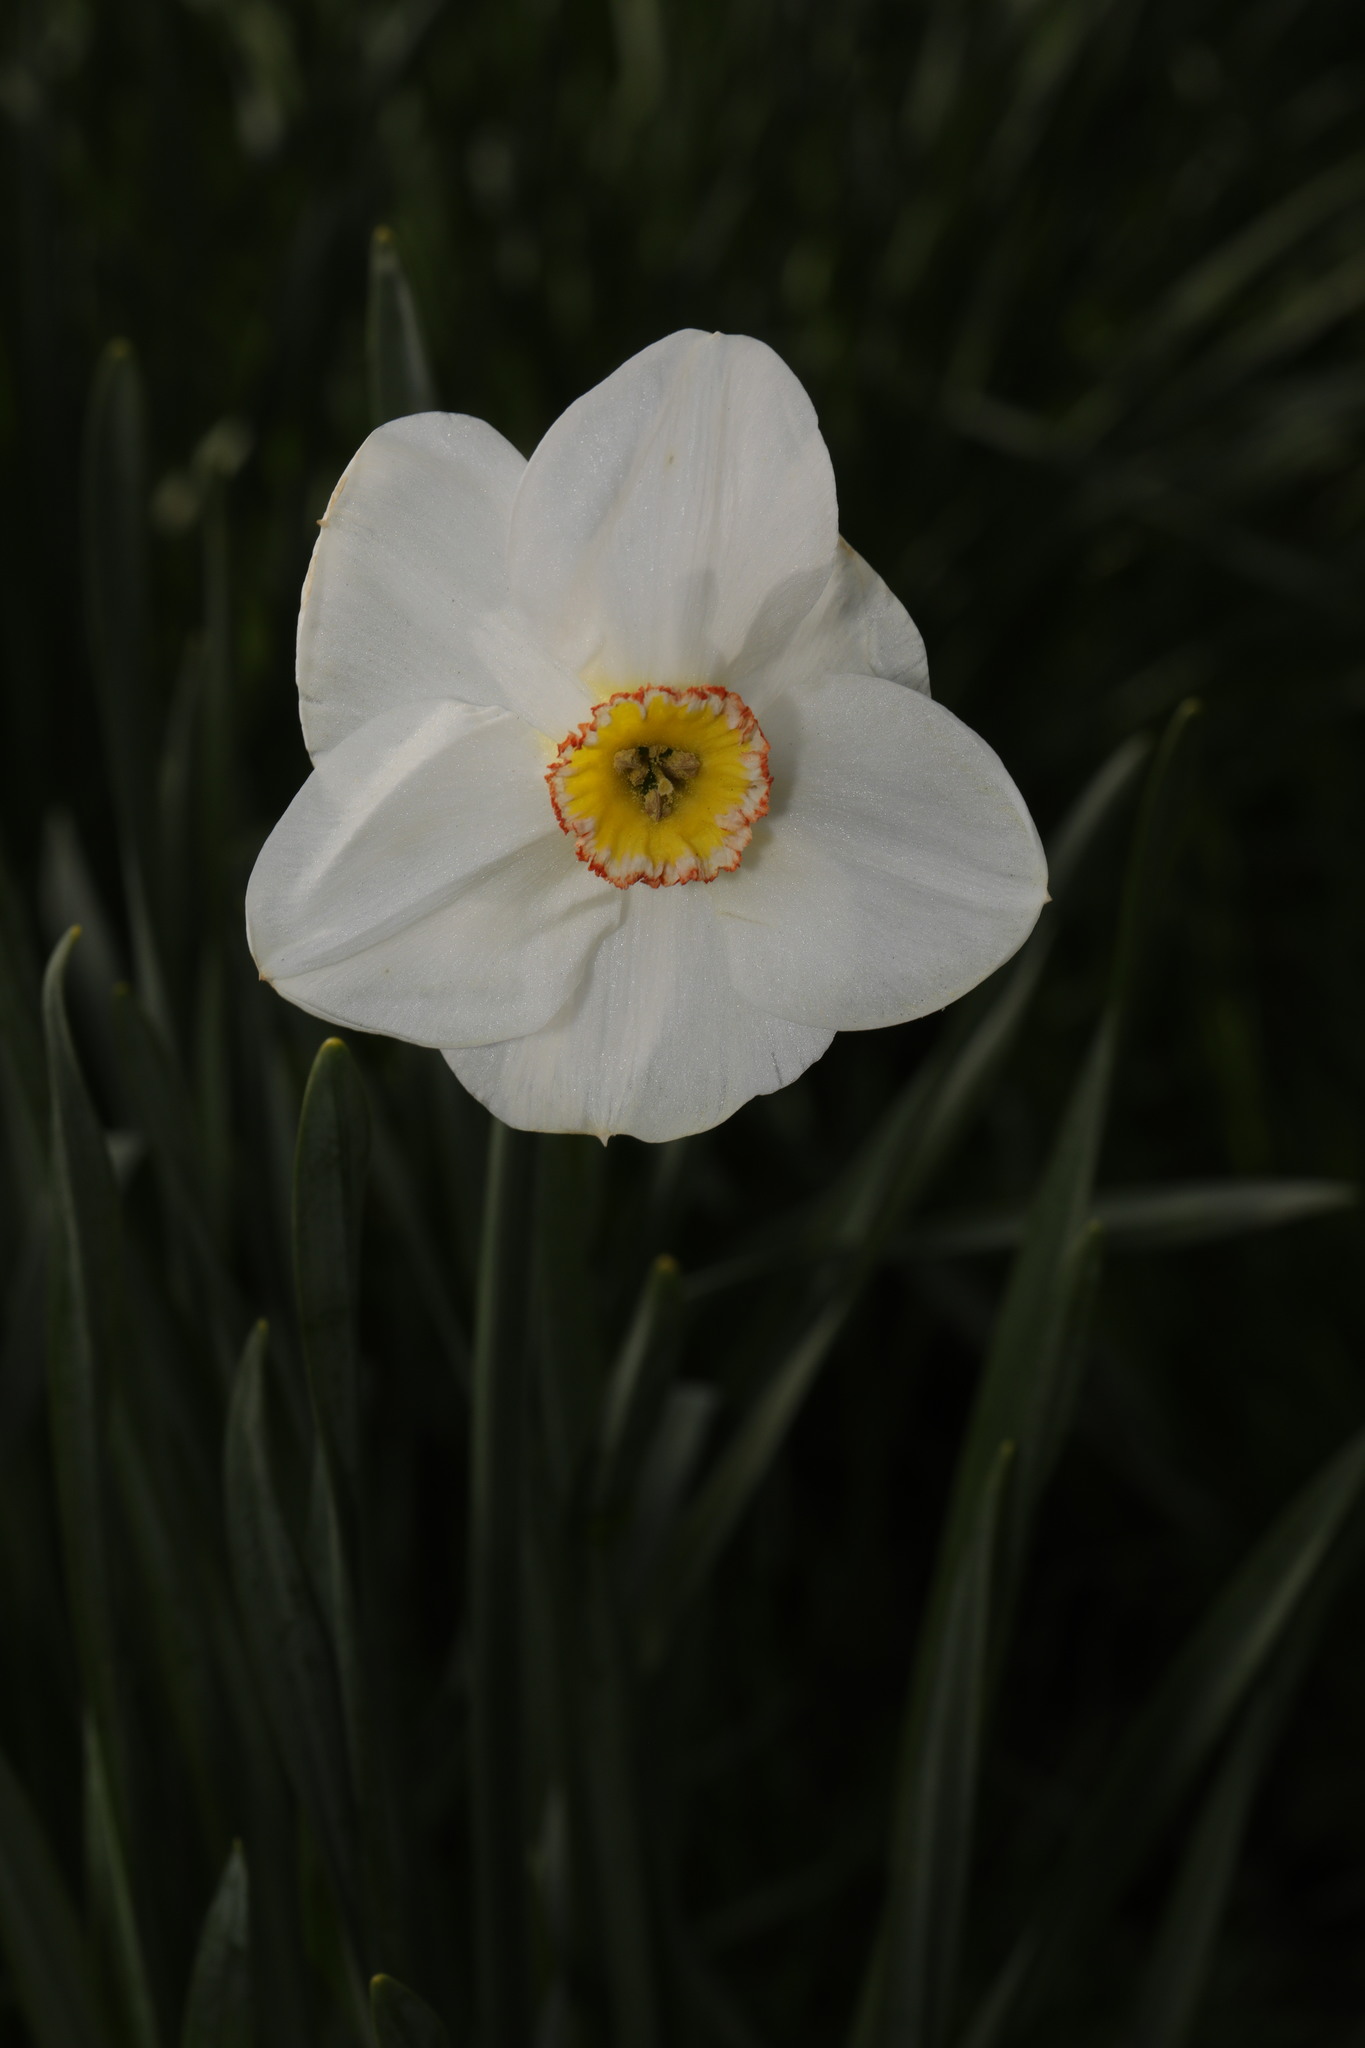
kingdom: Plantae
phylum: Tracheophyta
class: Liliopsida
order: Asparagales
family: Amaryllidaceae
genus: Narcissus
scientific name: Narcissus poeticus
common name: Pheasant's-eye daffodil
